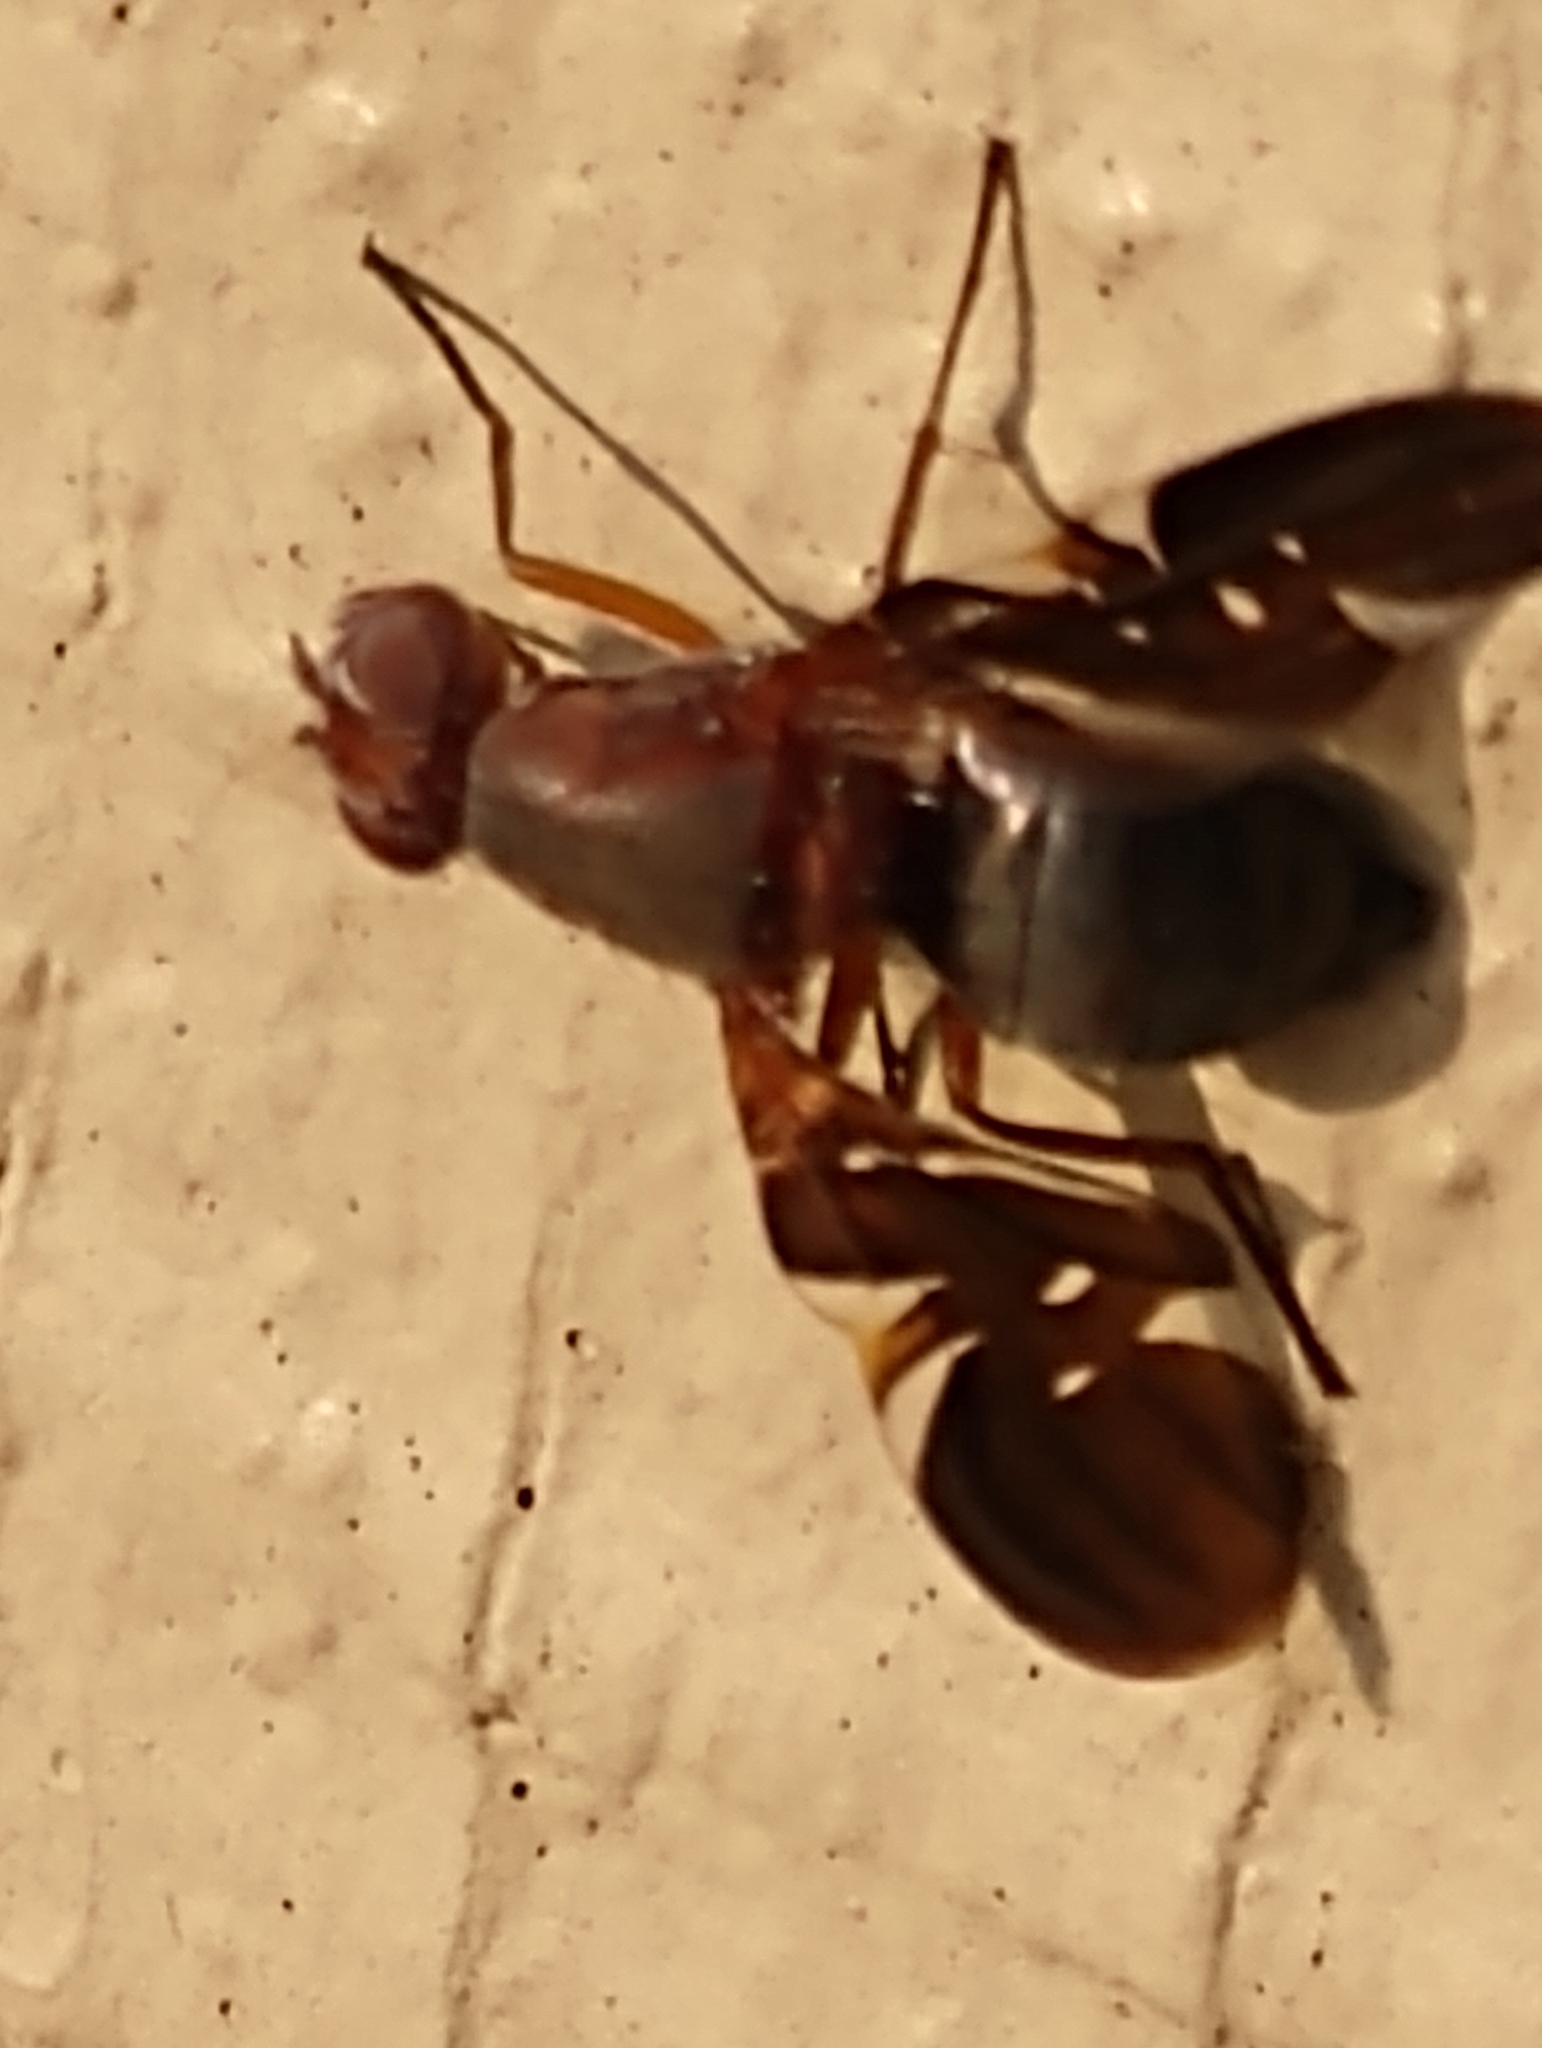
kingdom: Animalia
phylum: Arthropoda
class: Insecta
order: Diptera
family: Ulidiidae
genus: Delphinia
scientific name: Delphinia picta
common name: Common picture-winged fly
